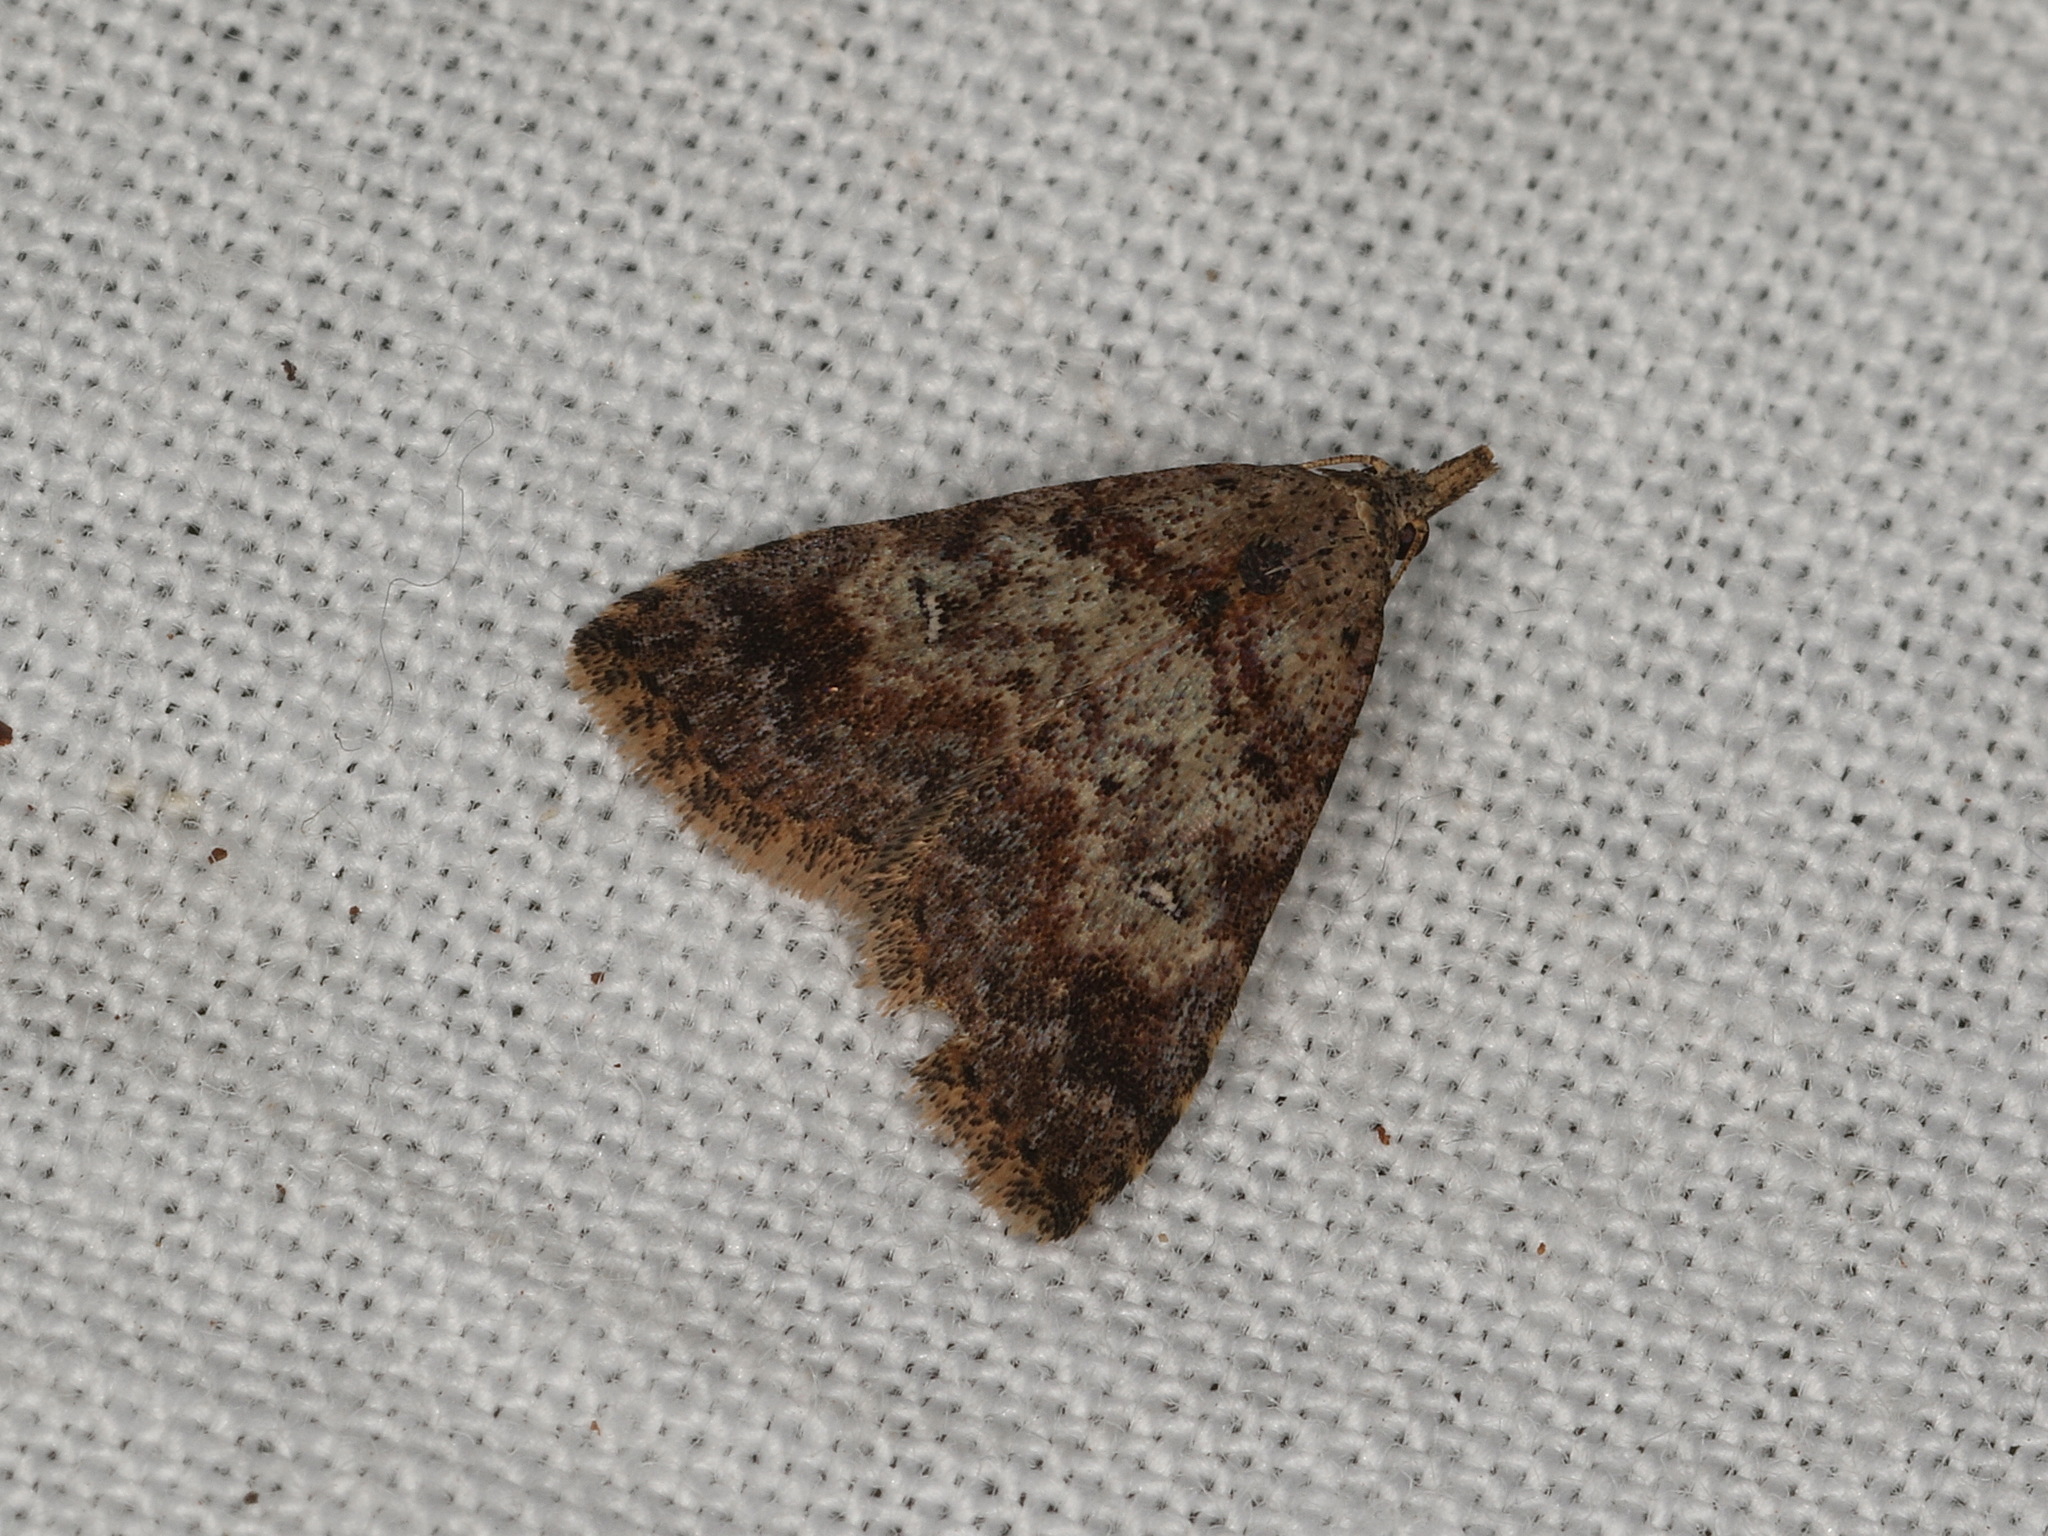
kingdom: Animalia
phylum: Arthropoda
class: Insecta
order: Lepidoptera
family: Erebidae
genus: Alapadna
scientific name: Alapadna pauropis
